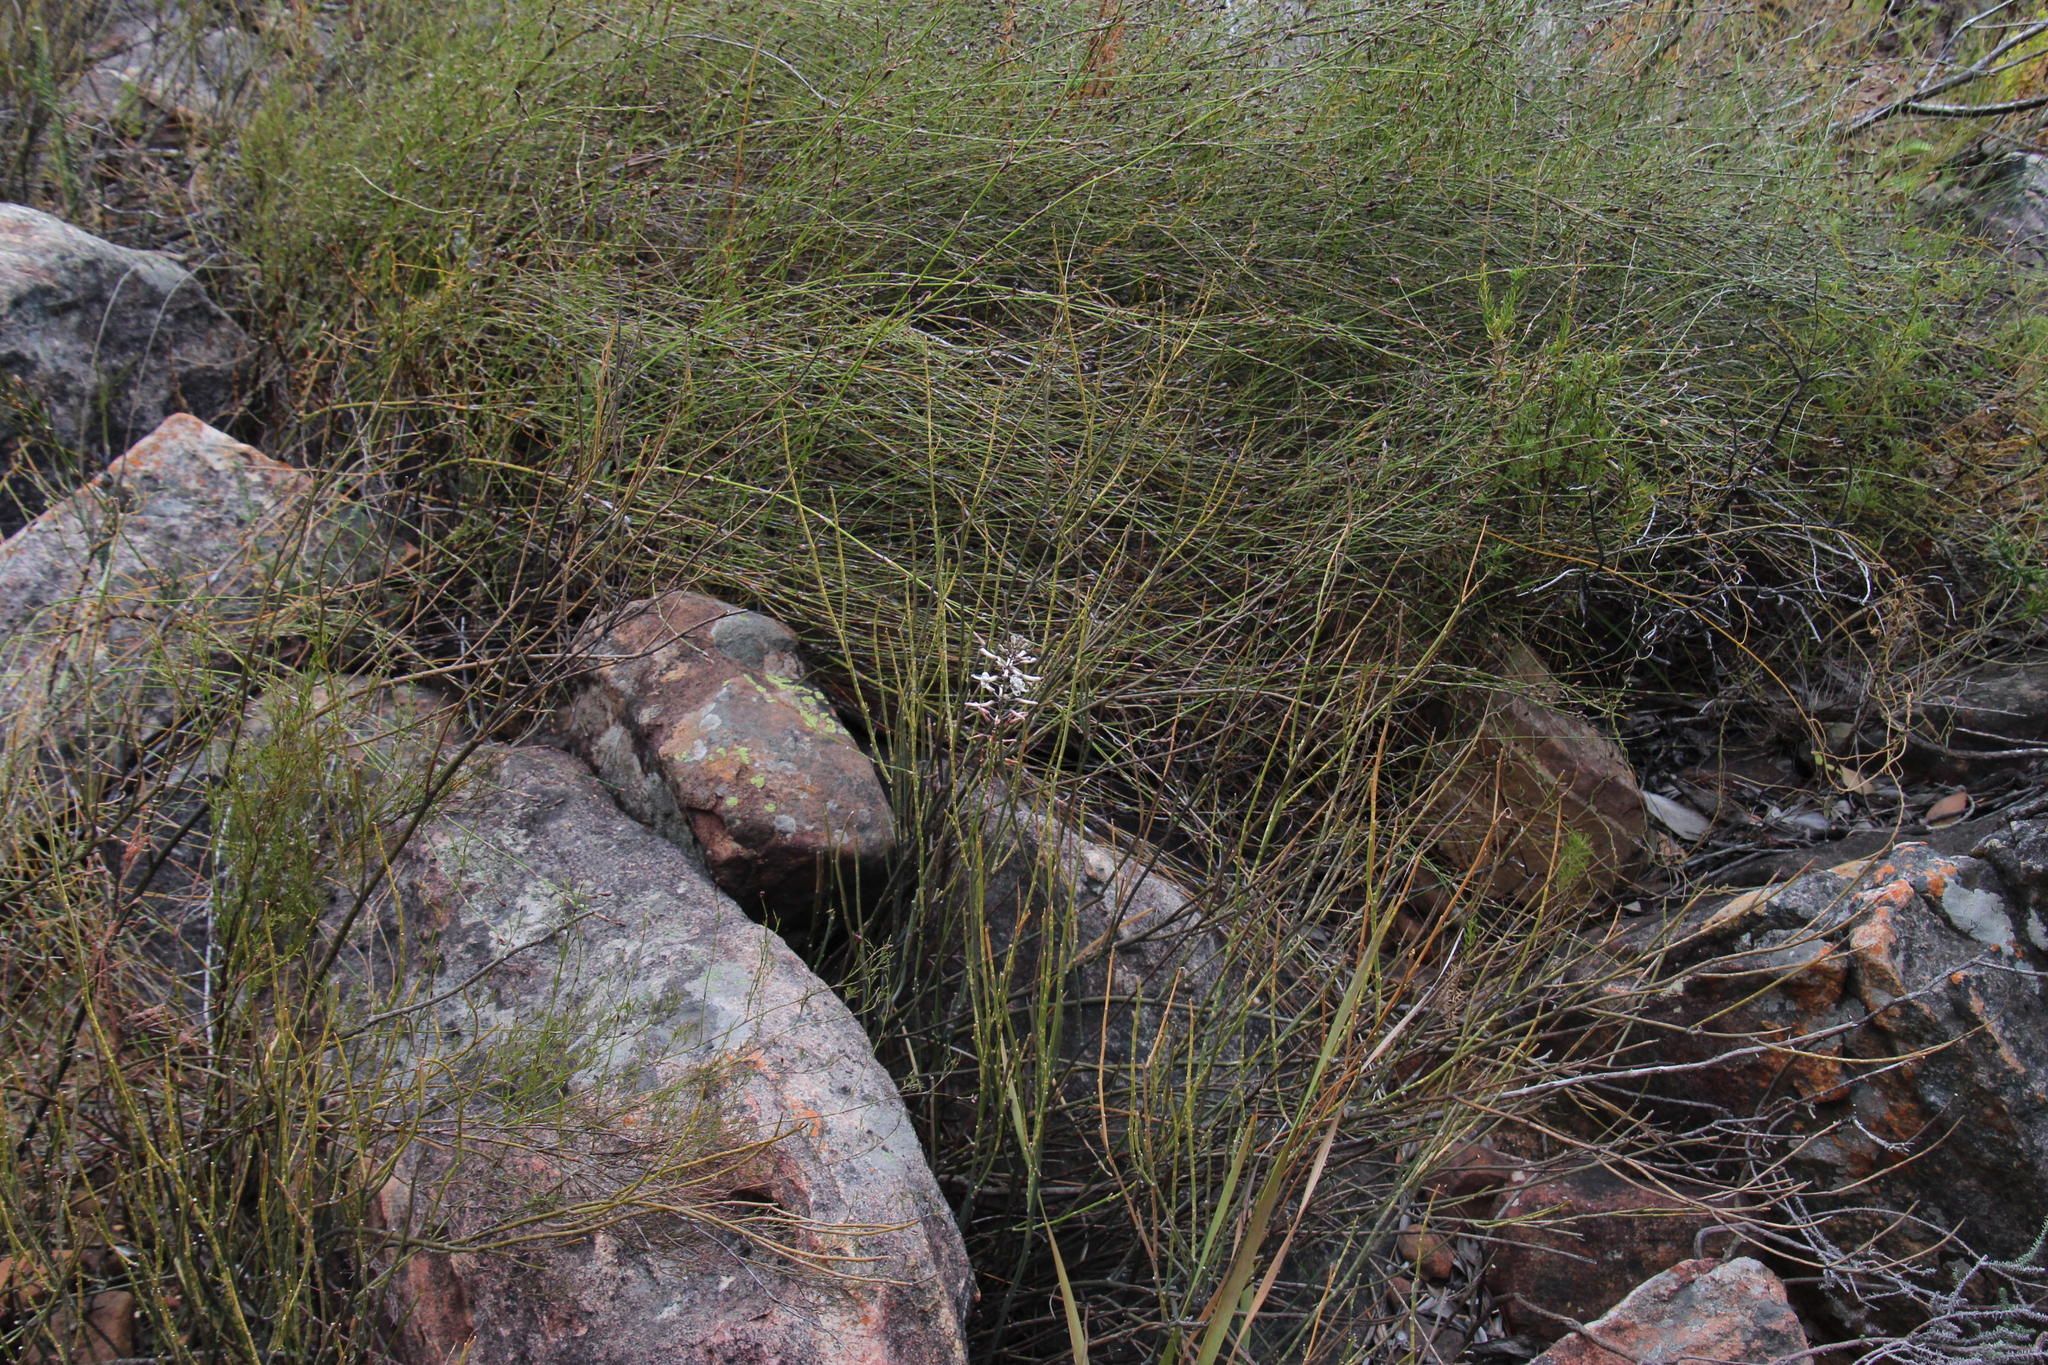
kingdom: Plantae
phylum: Tracheophyta
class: Liliopsida
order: Asparagales
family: Asparagaceae
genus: Drimia
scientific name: Drimia elata
